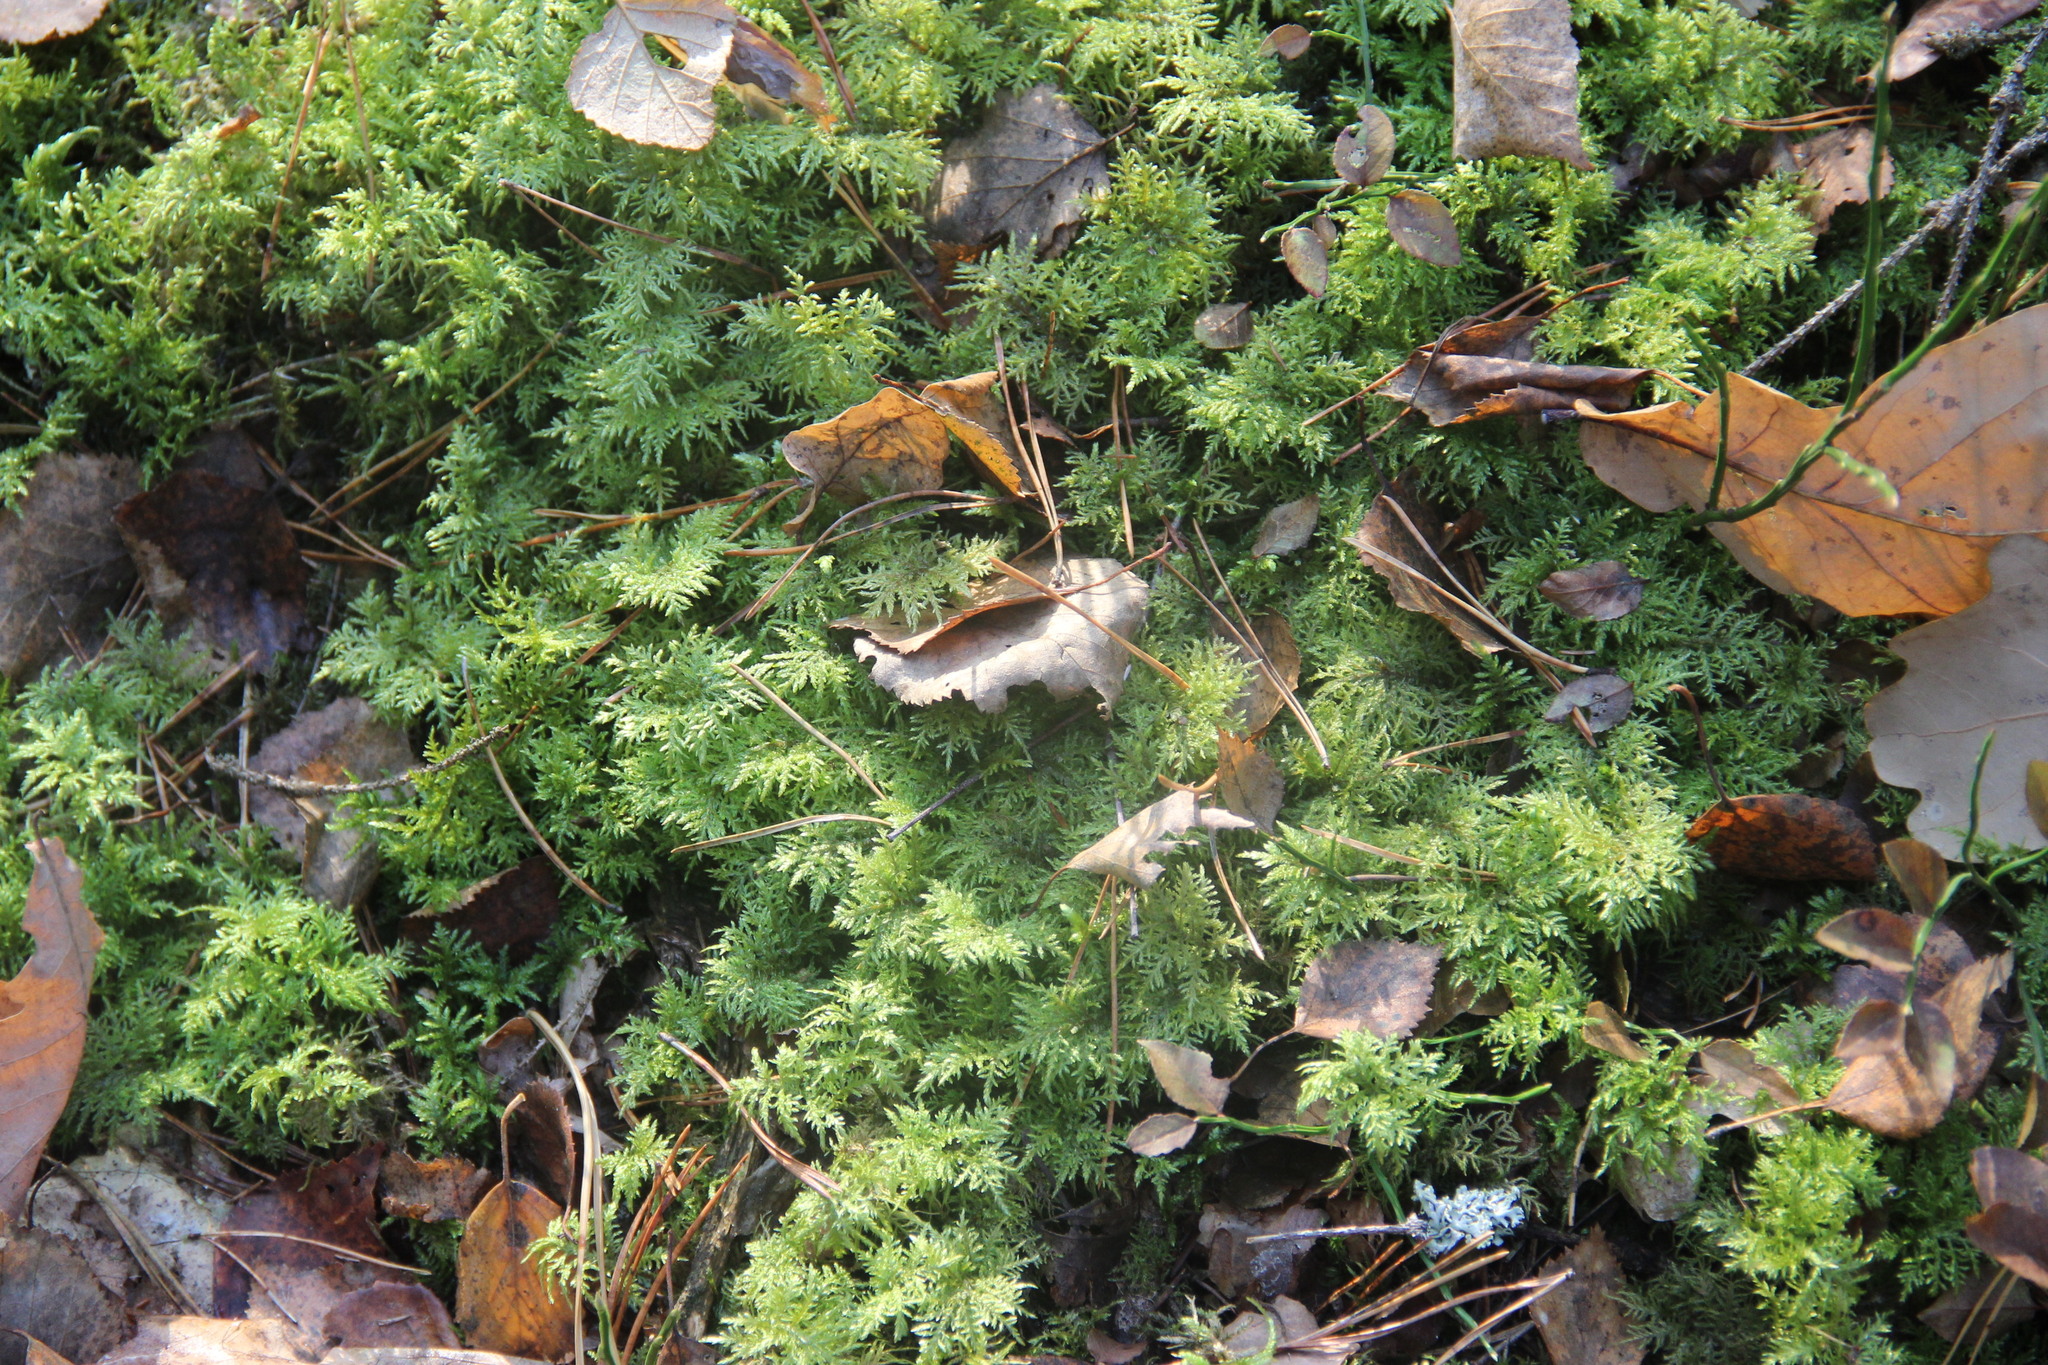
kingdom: Plantae
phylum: Bryophyta
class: Bryopsida
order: Hypnales
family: Hylocomiaceae
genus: Hylocomium
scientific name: Hylocomium splendens
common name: Stairstep moss
